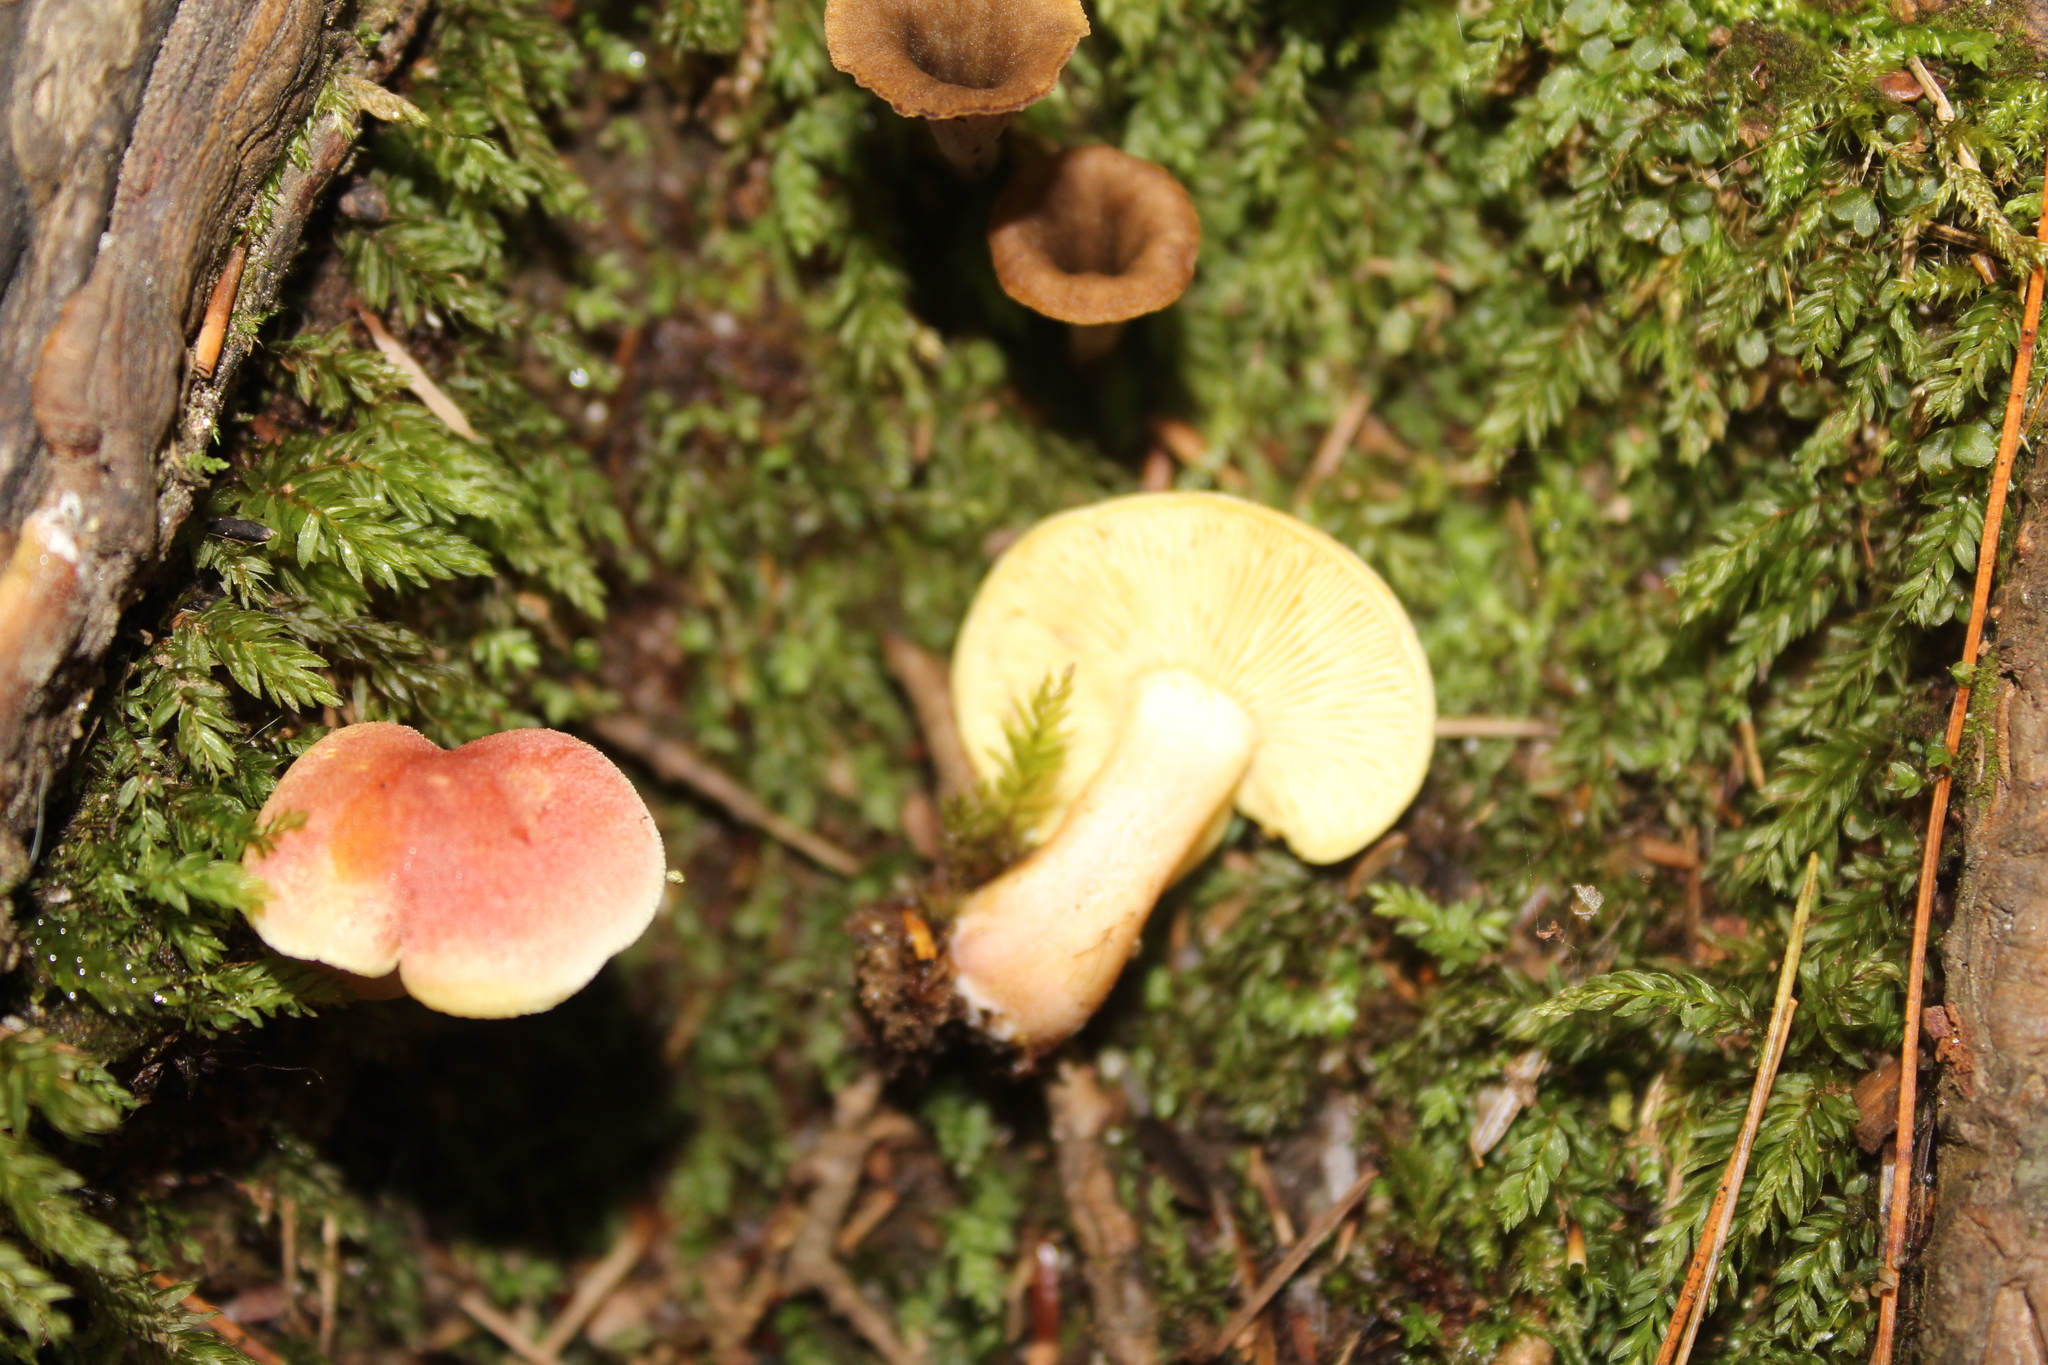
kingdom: Fungi
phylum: Basidiomycota
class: Agaricomycetes
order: Agaricales
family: Tricholomataceae
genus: Tricholomopsis
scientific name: Tricholomopsis rutilans
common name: Plums and custard
